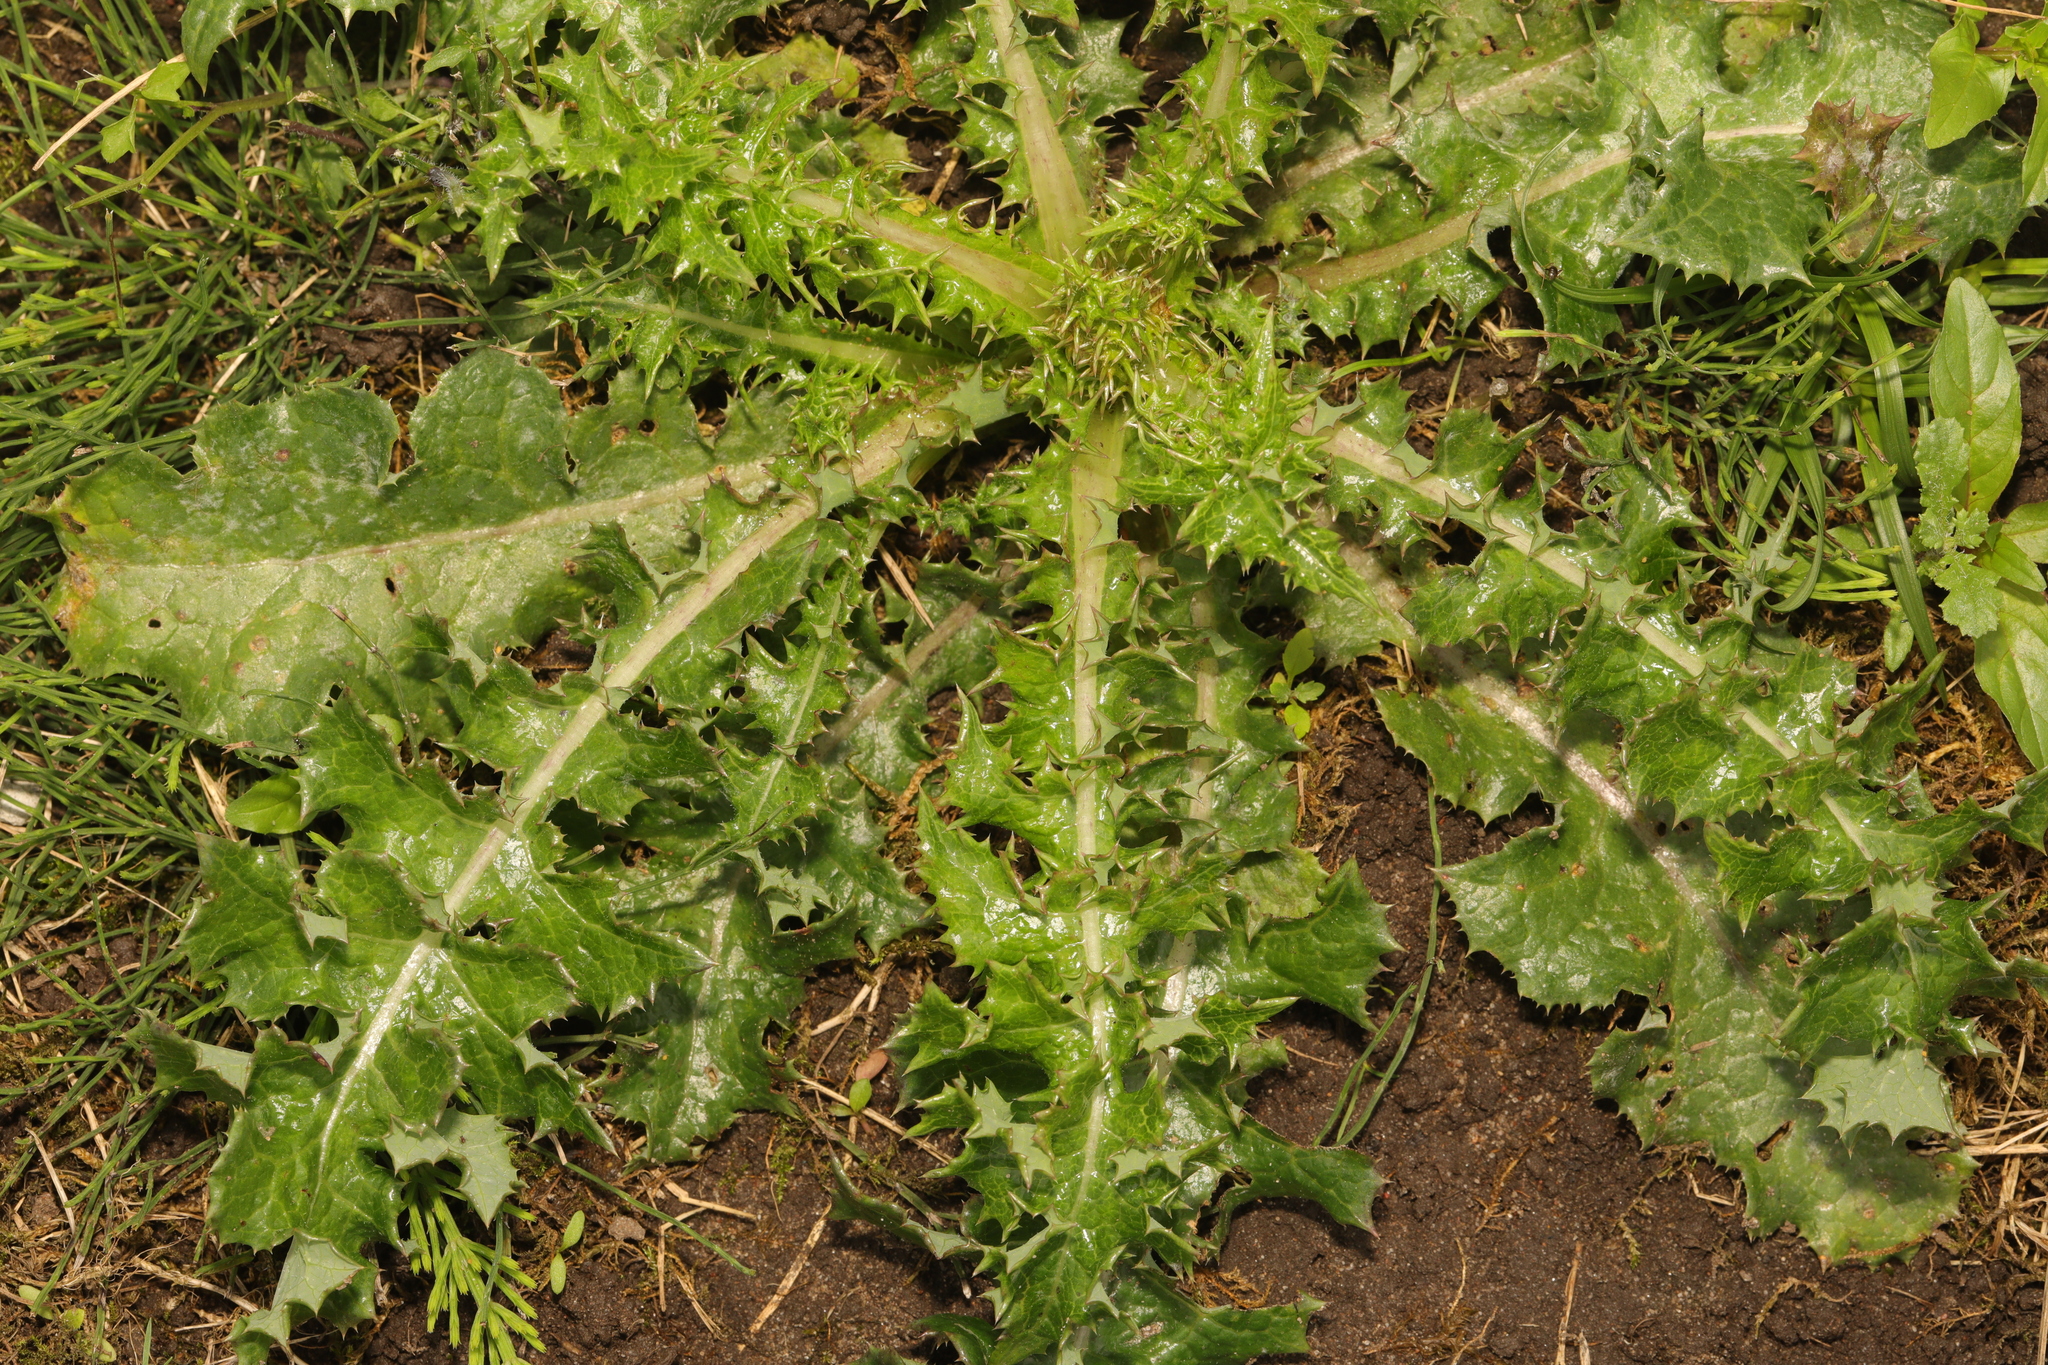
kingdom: Plantae
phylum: Tracheophyta
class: Magnoliopsida
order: Asterales
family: Asteraceae
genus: Sonchus
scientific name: Sonchus asper
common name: Prickly sow-thistle
